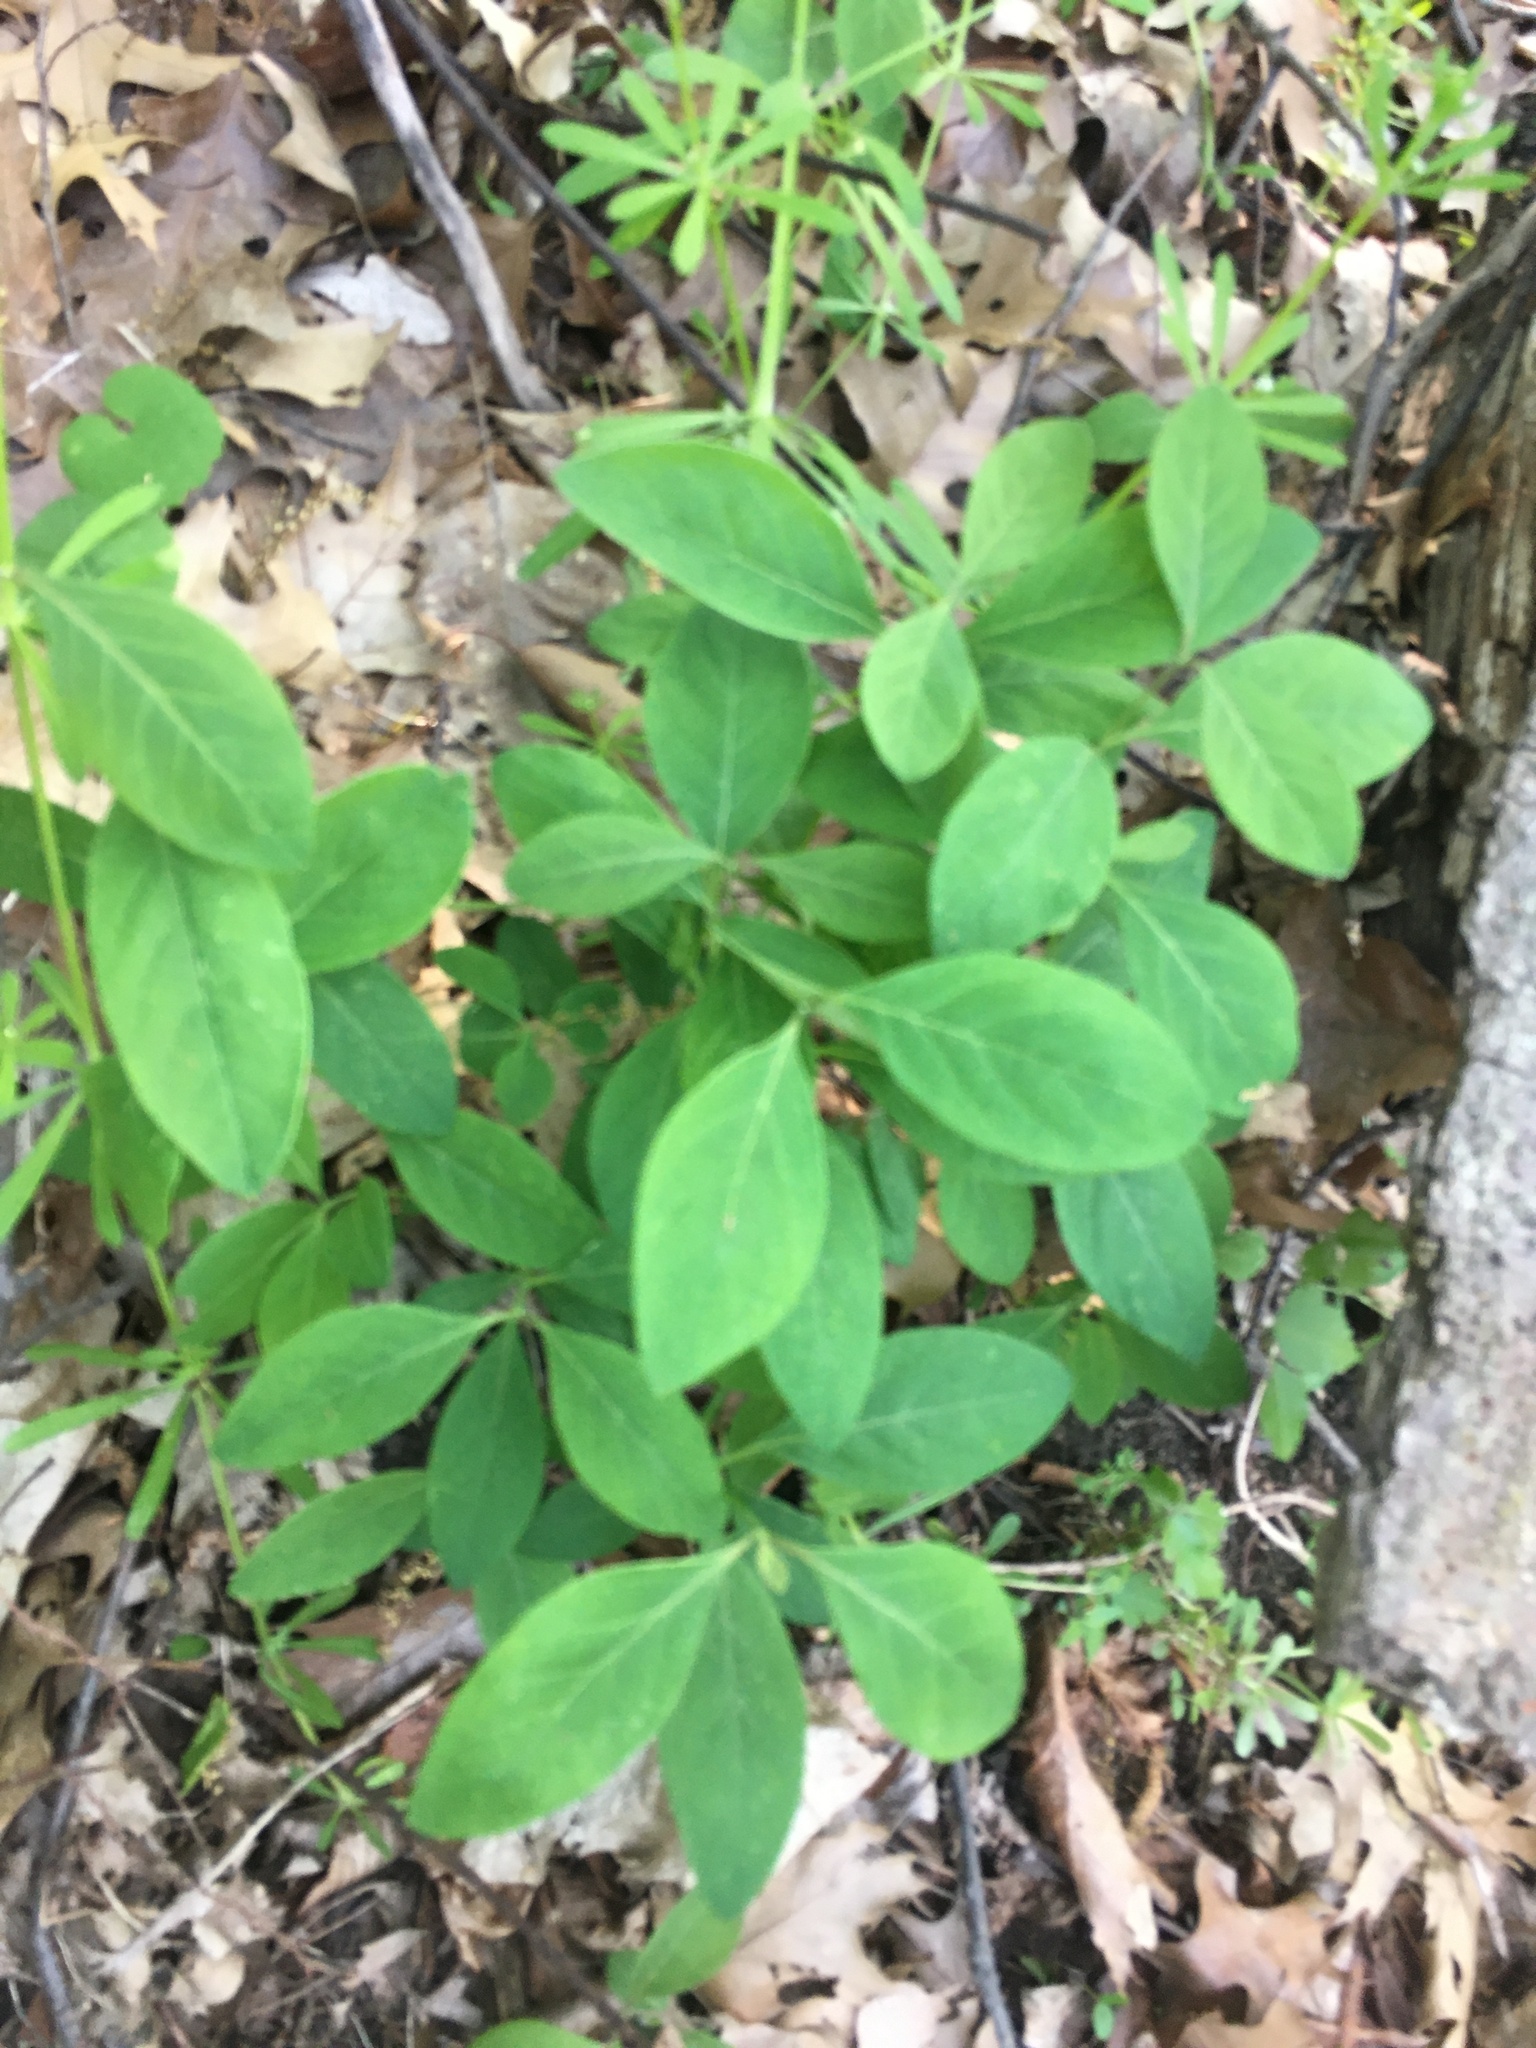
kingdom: Plantae
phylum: Tracheophyta
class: Magnoliopsida
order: Celastrales
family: Celastraceae
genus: Euonymus
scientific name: Euonymus obovatus
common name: Running strawberry-bush
